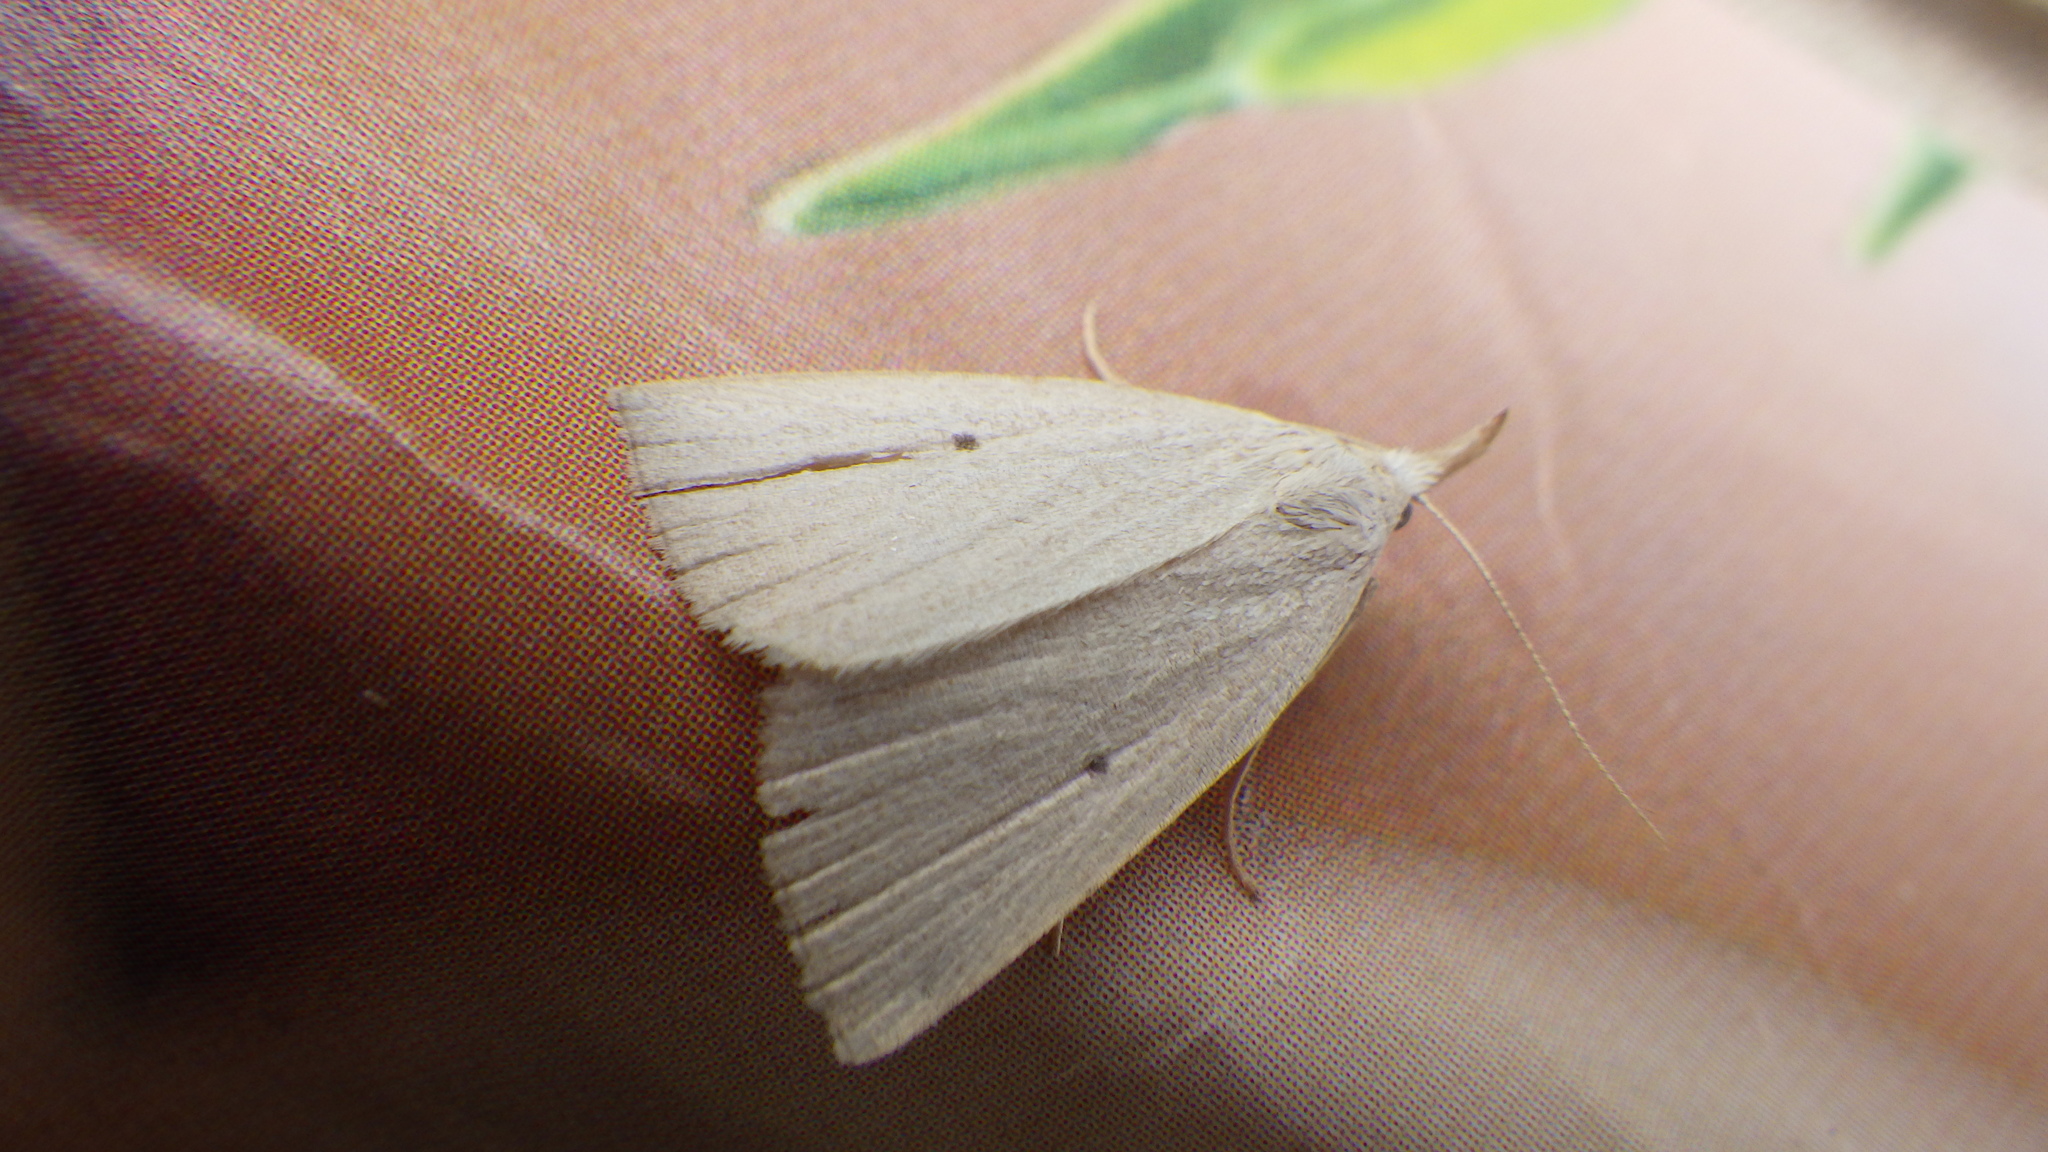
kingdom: Animalia
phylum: Arthropoda
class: Insecta
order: Lepidoptera
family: Erebidae
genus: Macrochilo
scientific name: Macrochilo cribrumalis
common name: Dotted fan-foot
